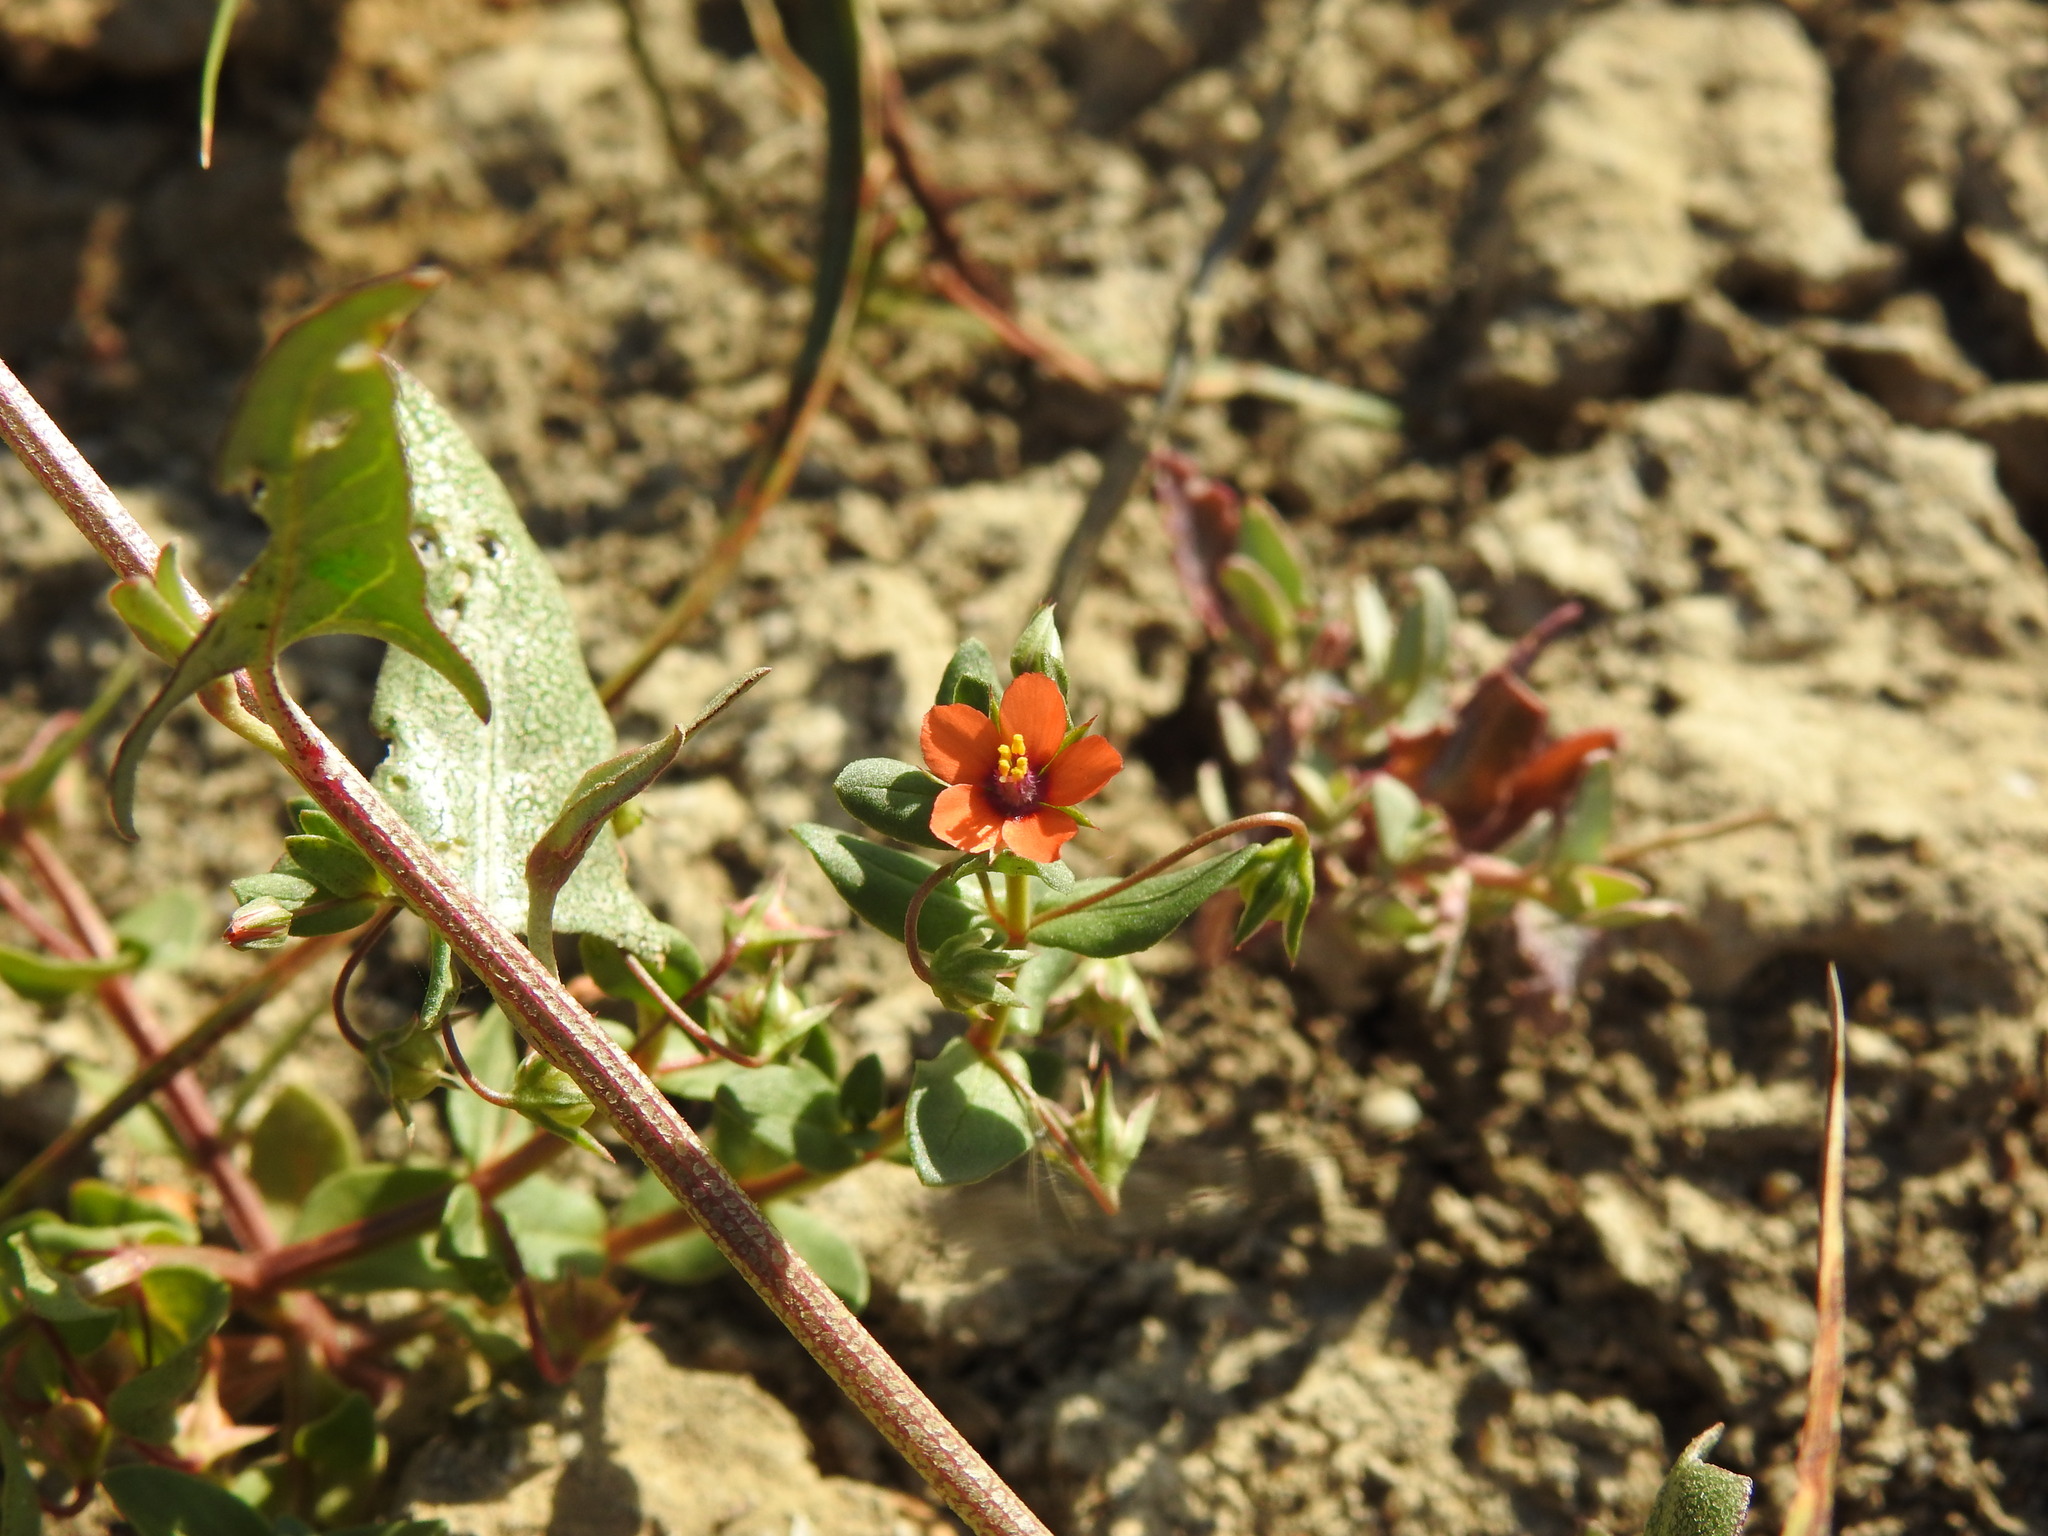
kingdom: Plantae
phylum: Tracheophyta
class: Magnoliopsida
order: Ericales
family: Primulaceae
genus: Lysimachia
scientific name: Lysimachia arvensis
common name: Scarlet pimpernel
